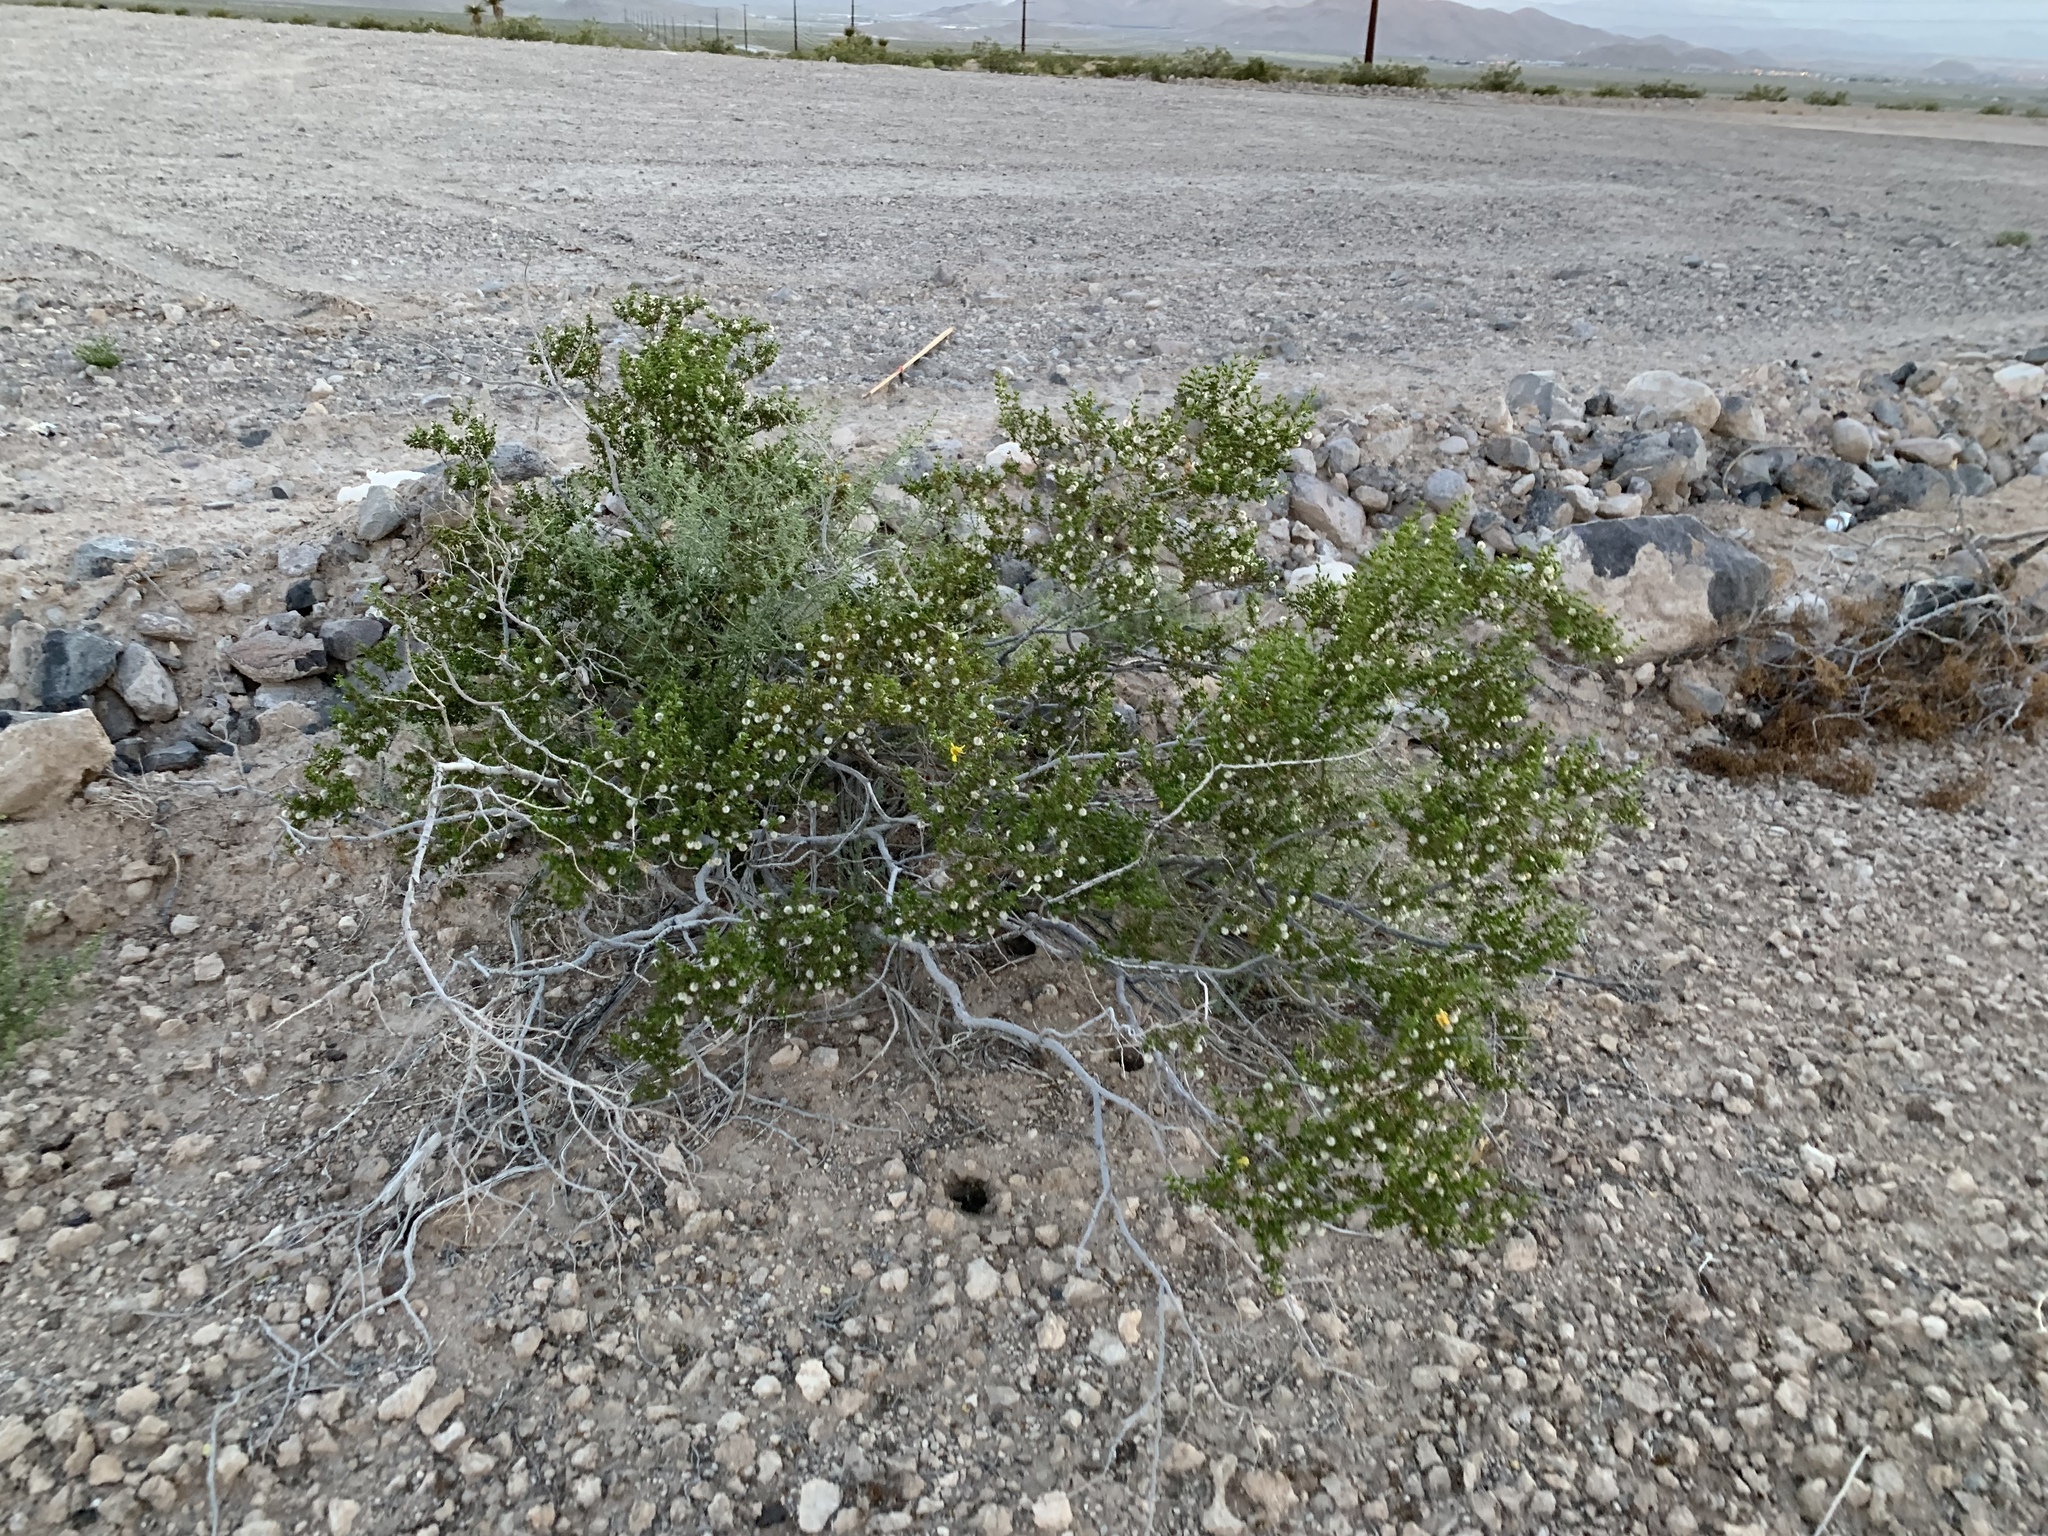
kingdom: Plantae
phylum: Tracheophyta
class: Magnoliopsida
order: Zygophyllales
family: Zygophyllaceae
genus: Larrea
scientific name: Larrea tridentata
